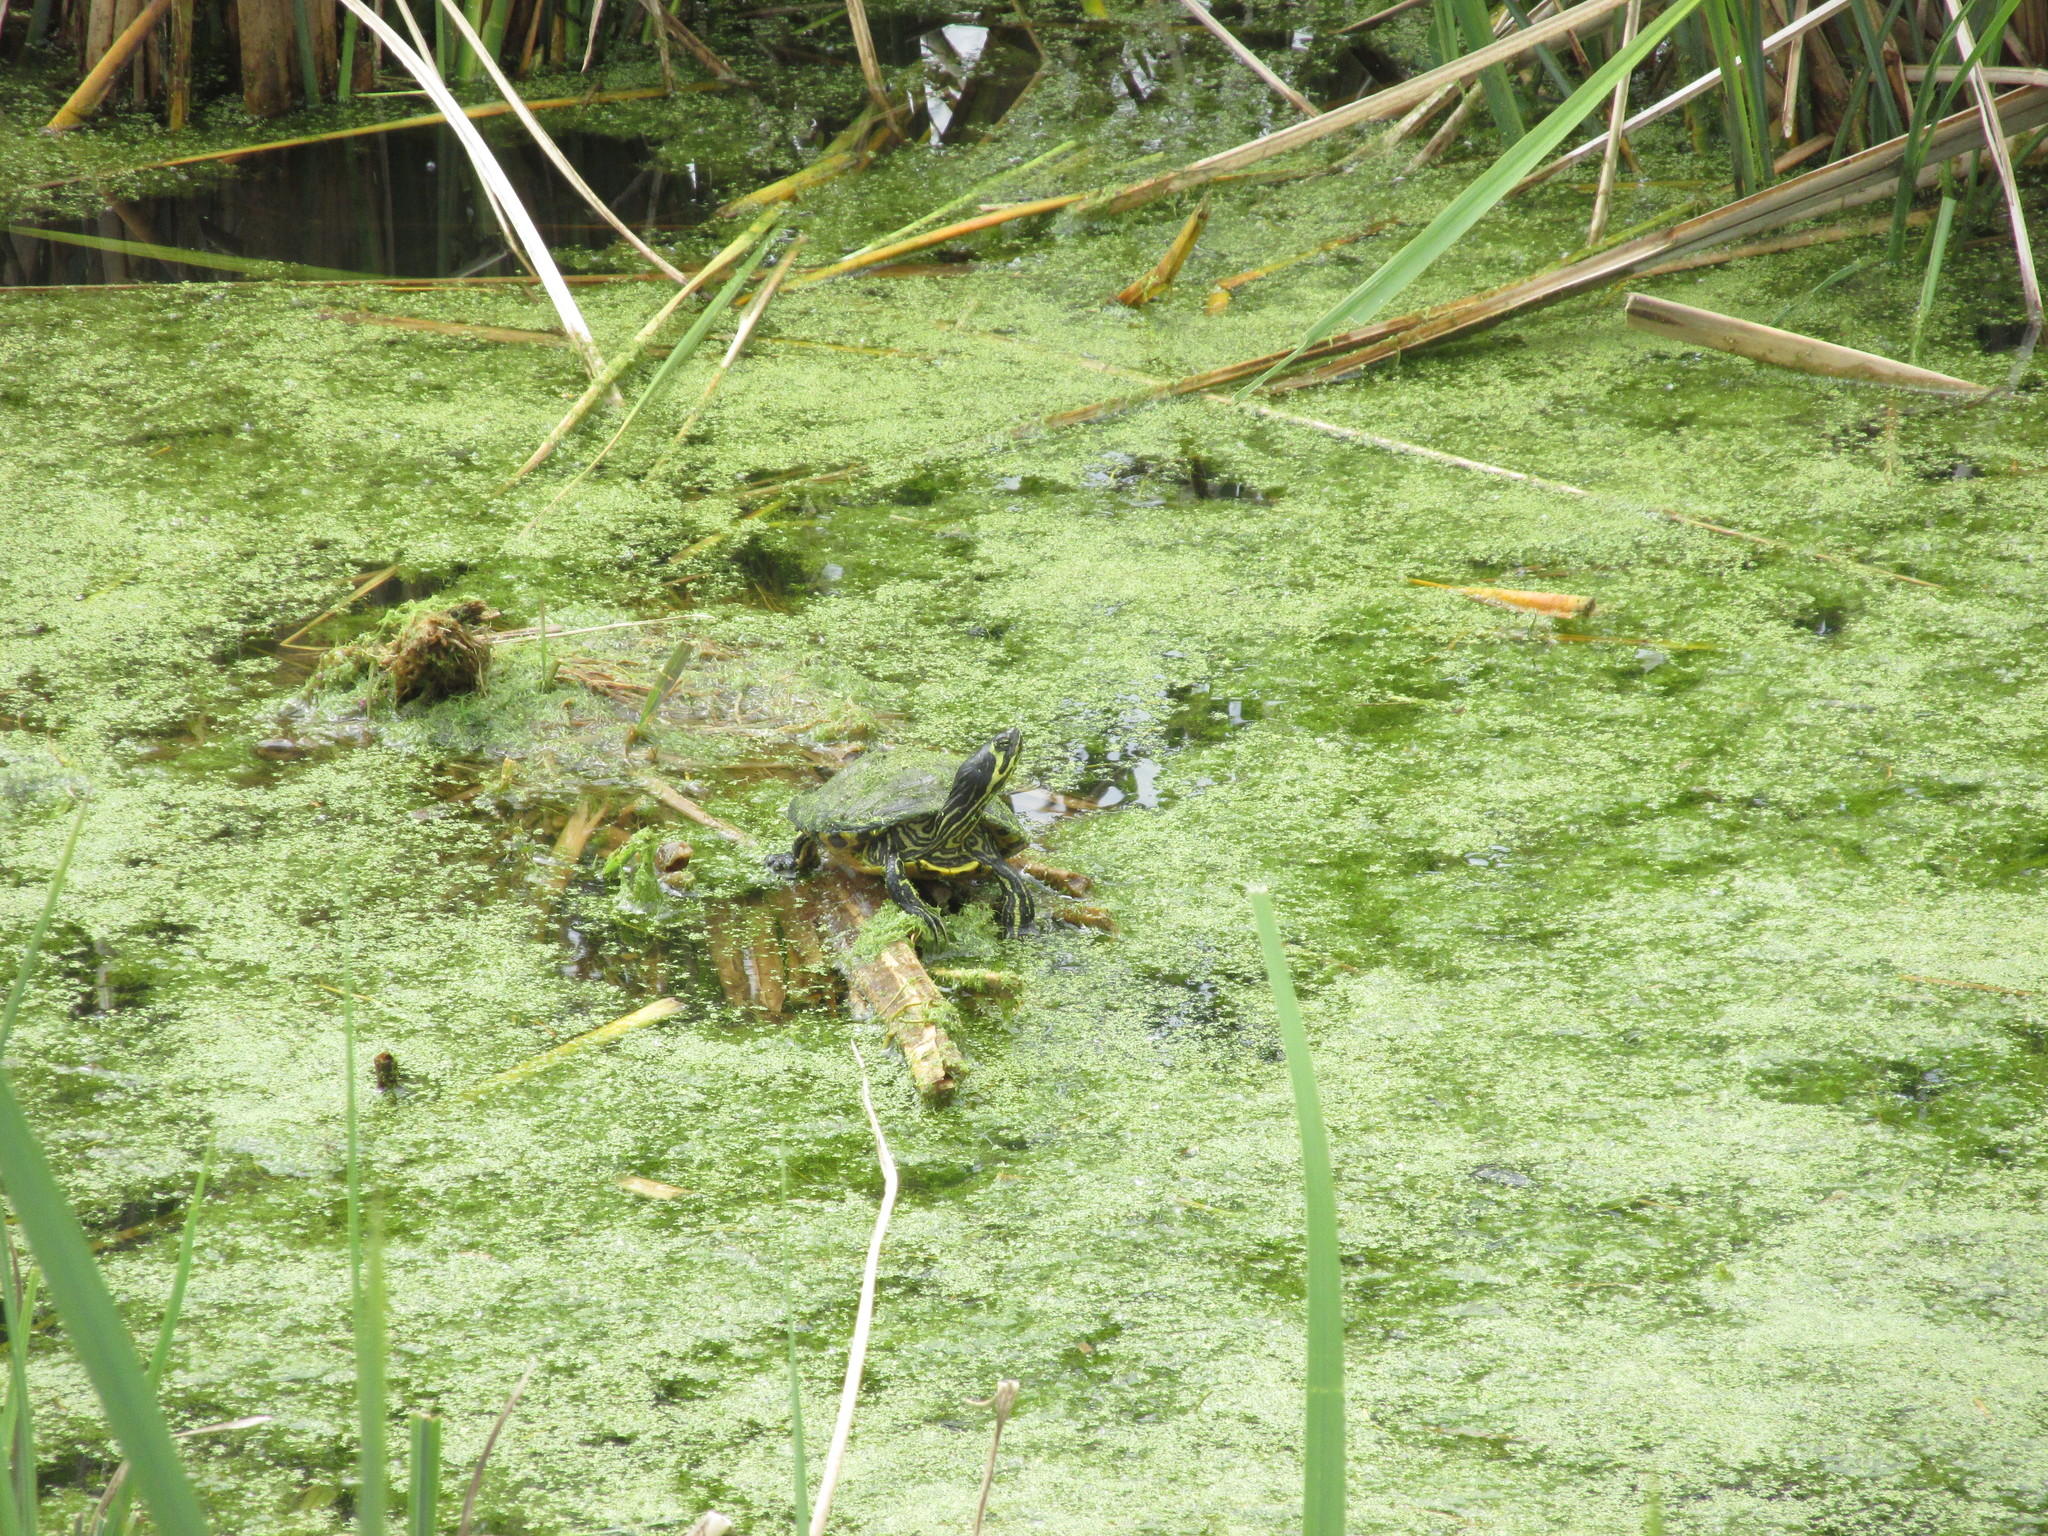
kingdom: Animalia
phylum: Chordata
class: Testudines
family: Emydidae
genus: Trachemys
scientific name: Trachemys scripta
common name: Slider
